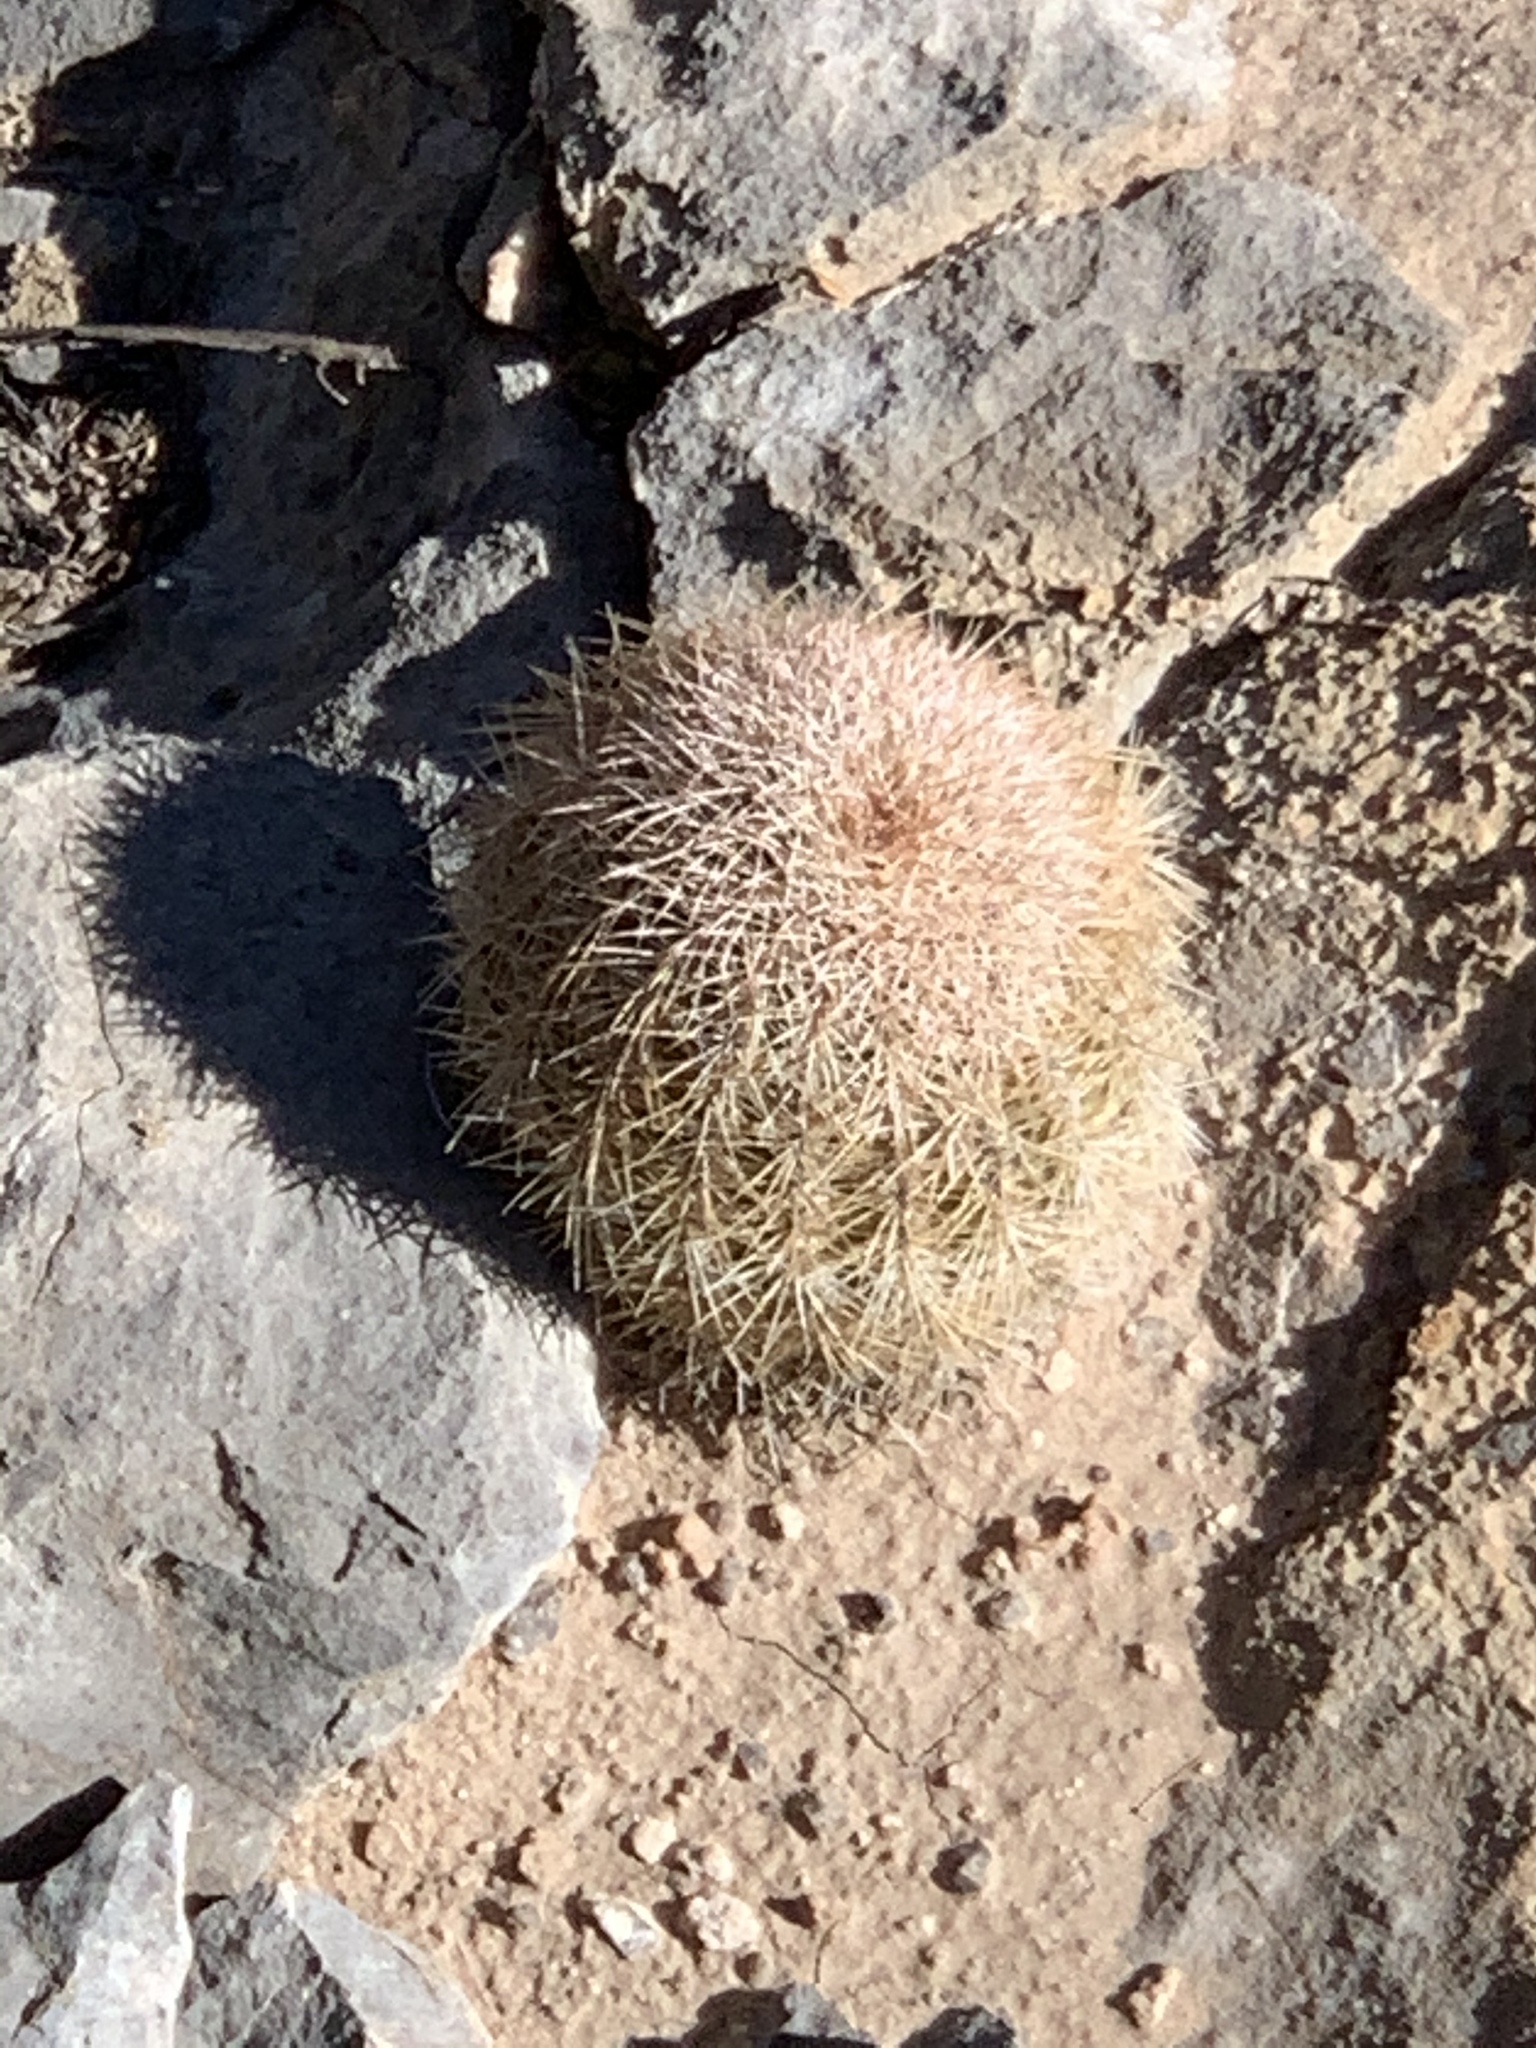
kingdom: Plantae
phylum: Tracheophyta
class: Magnoliopsida
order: Caryophyllales
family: Cactaceae
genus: Echinocereus
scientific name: Echinocereus dasyacanthus
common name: Spiny hedgehog cactus
